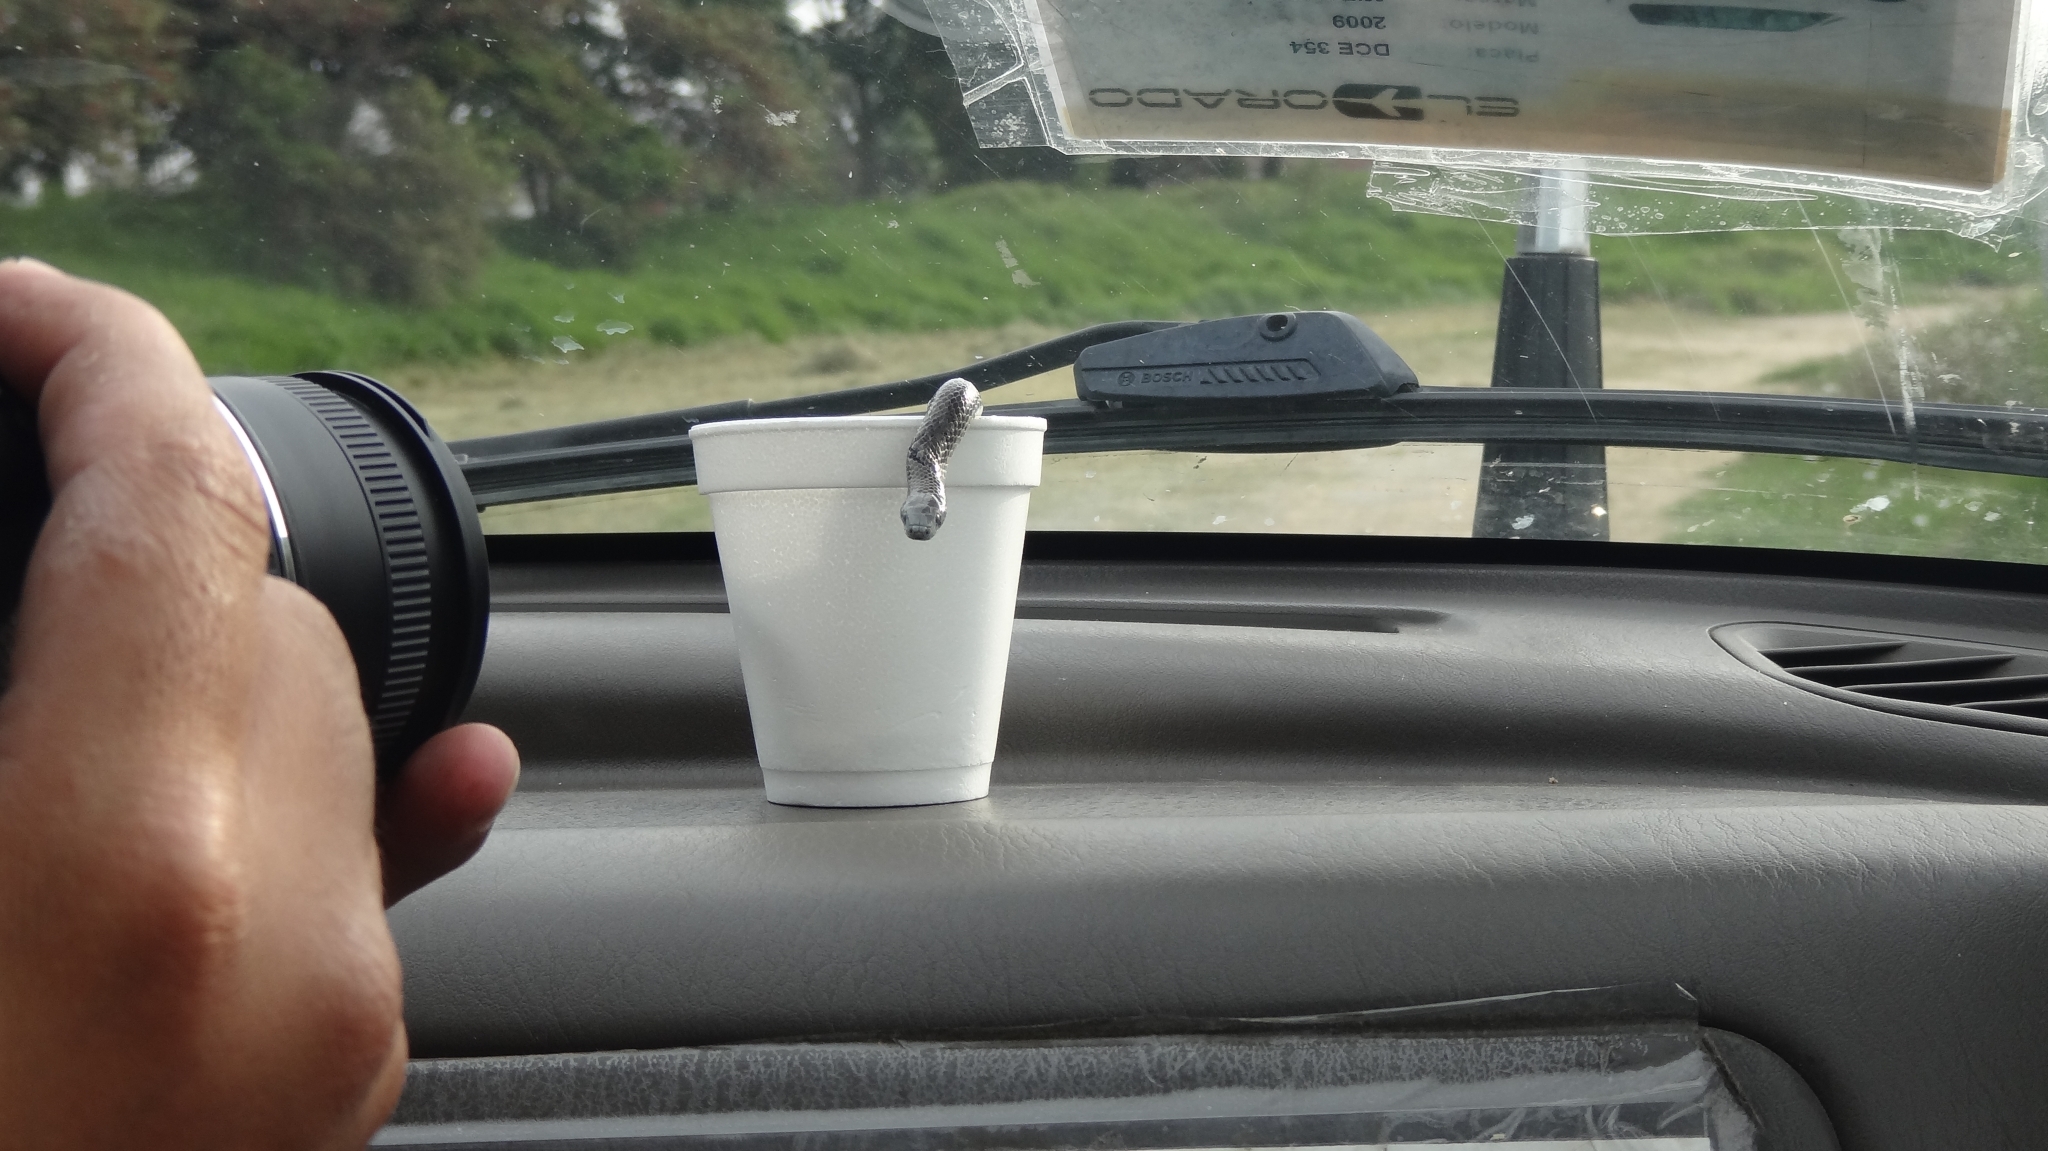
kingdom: Animalia
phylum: Chordata
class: Squamata
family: Colubridae
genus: Atractus
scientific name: Atractus crassicaudatus
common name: Thickhead ground snake
